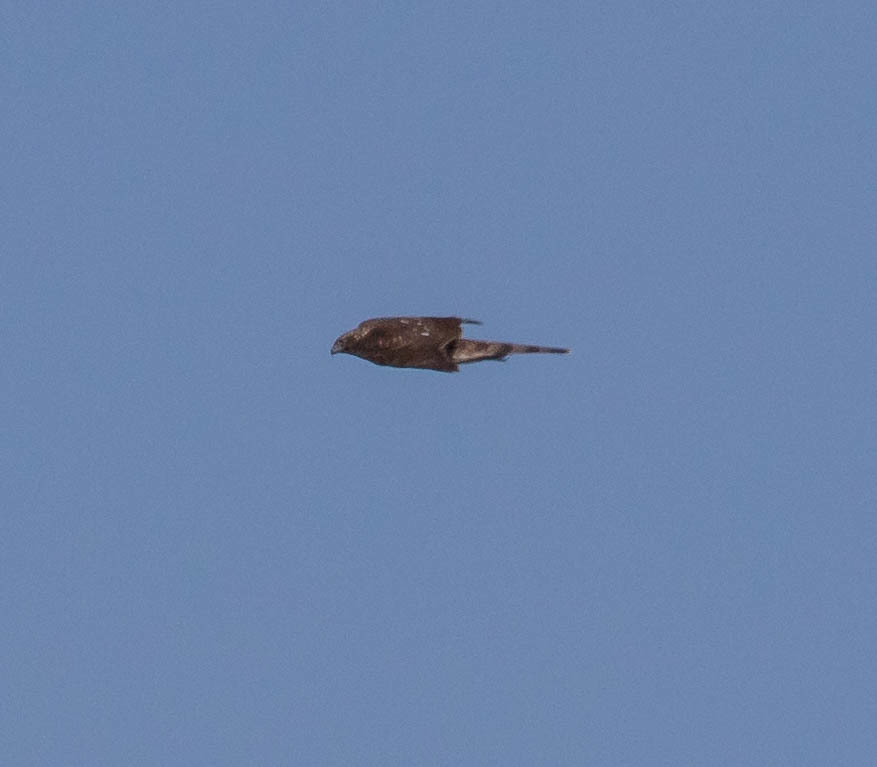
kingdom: Animalia
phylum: Chordata
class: Aves
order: Accipitriformes
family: Accipitridae
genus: Accipiter
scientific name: Accipiter cooperii
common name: Cooper's hawk
